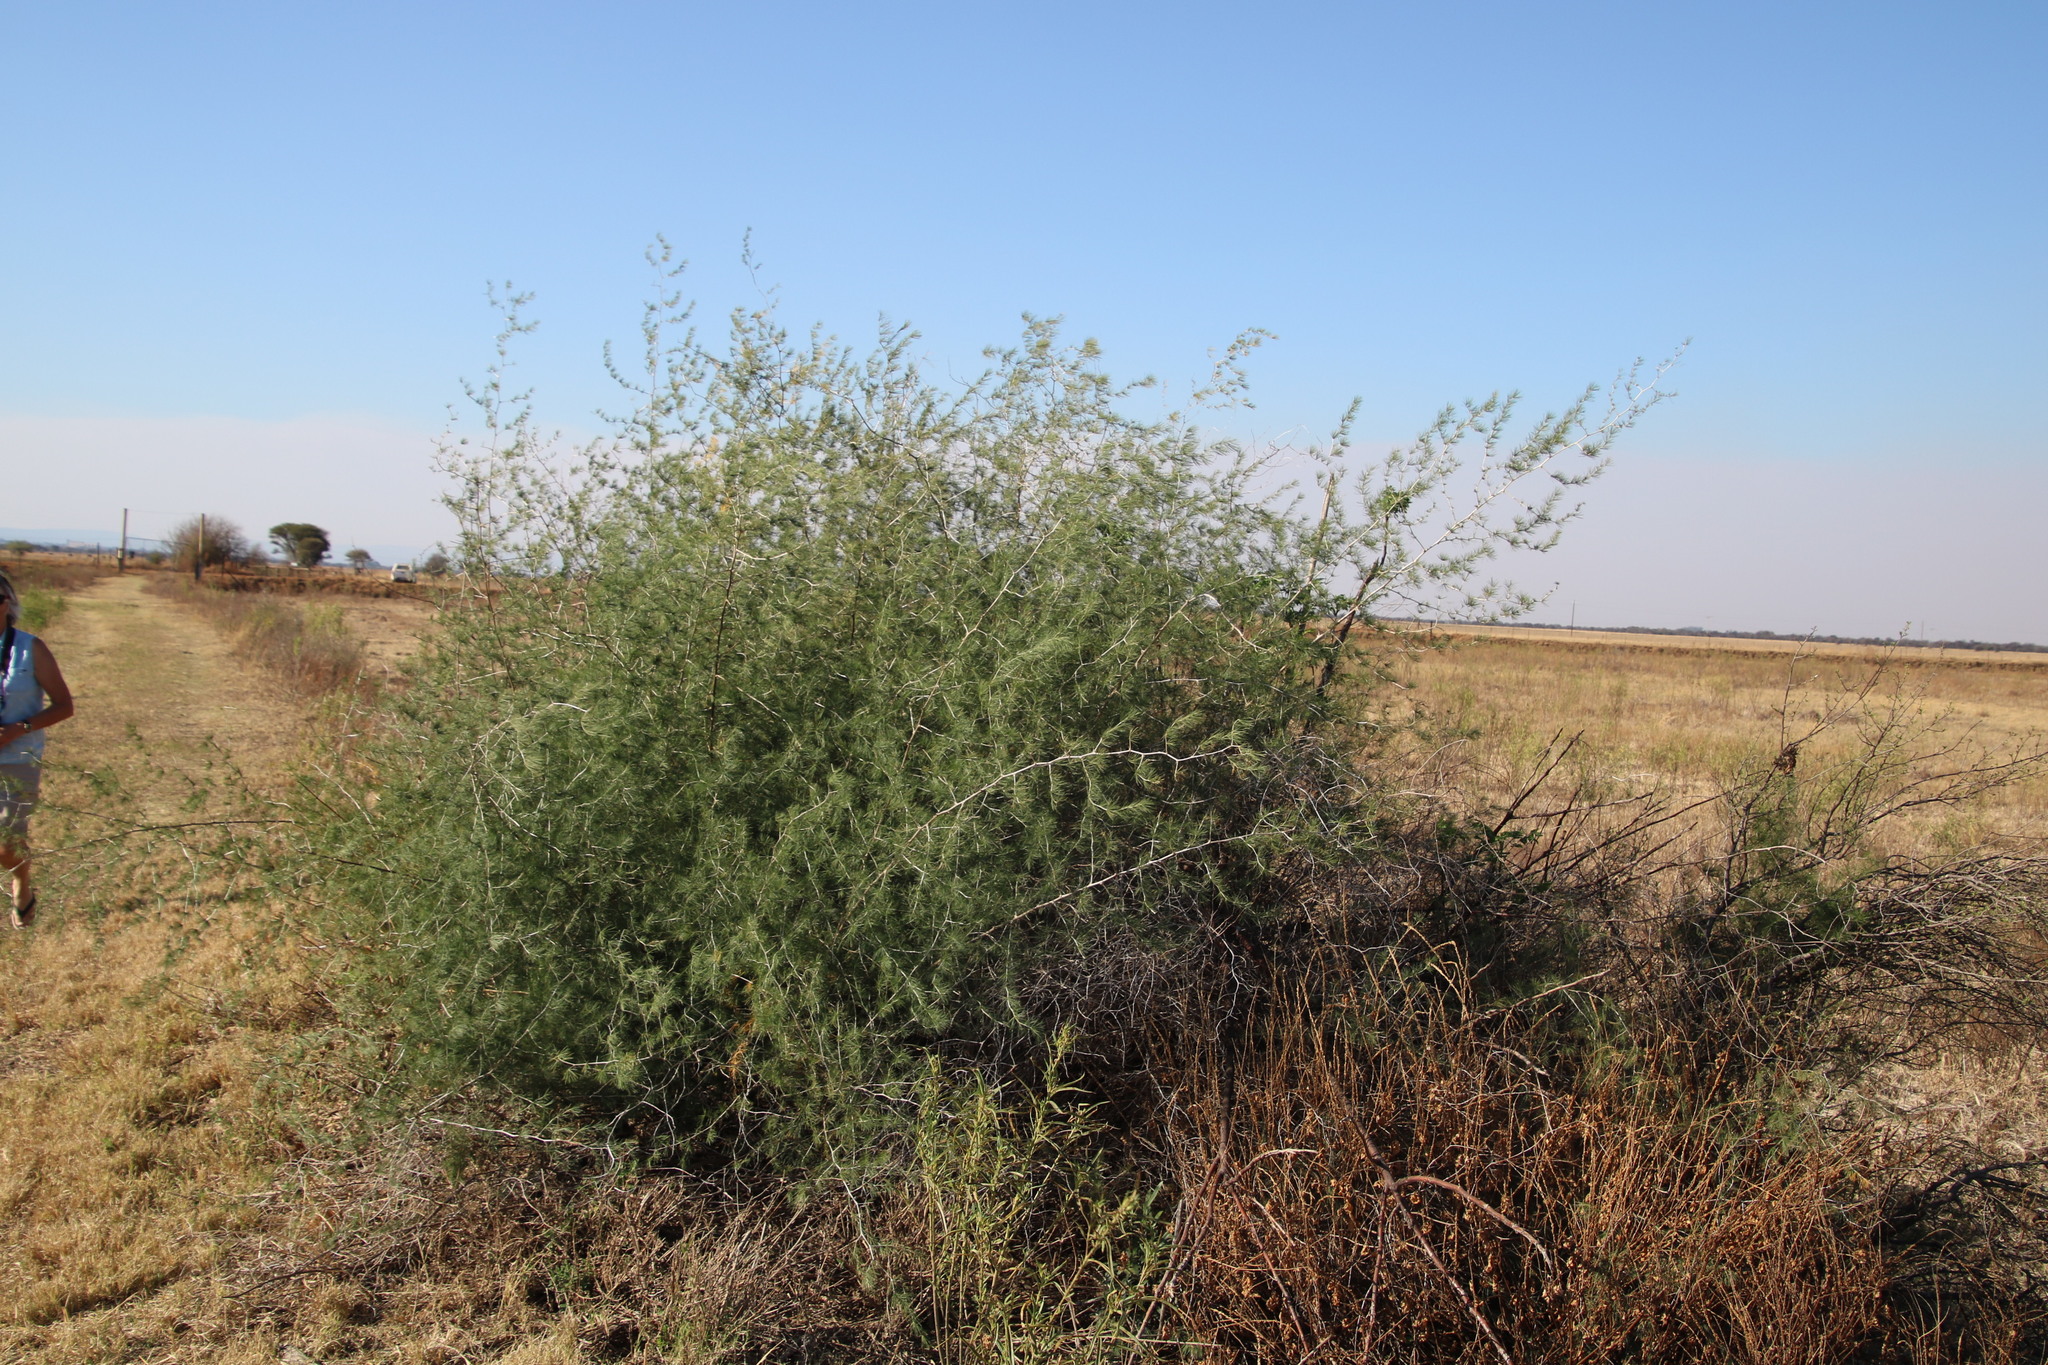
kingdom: Plantae
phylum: Tracheophyta
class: Liliopsida
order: Asparagales
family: Asparagaceae
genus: Asparagus
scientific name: Asparagus laricinus
